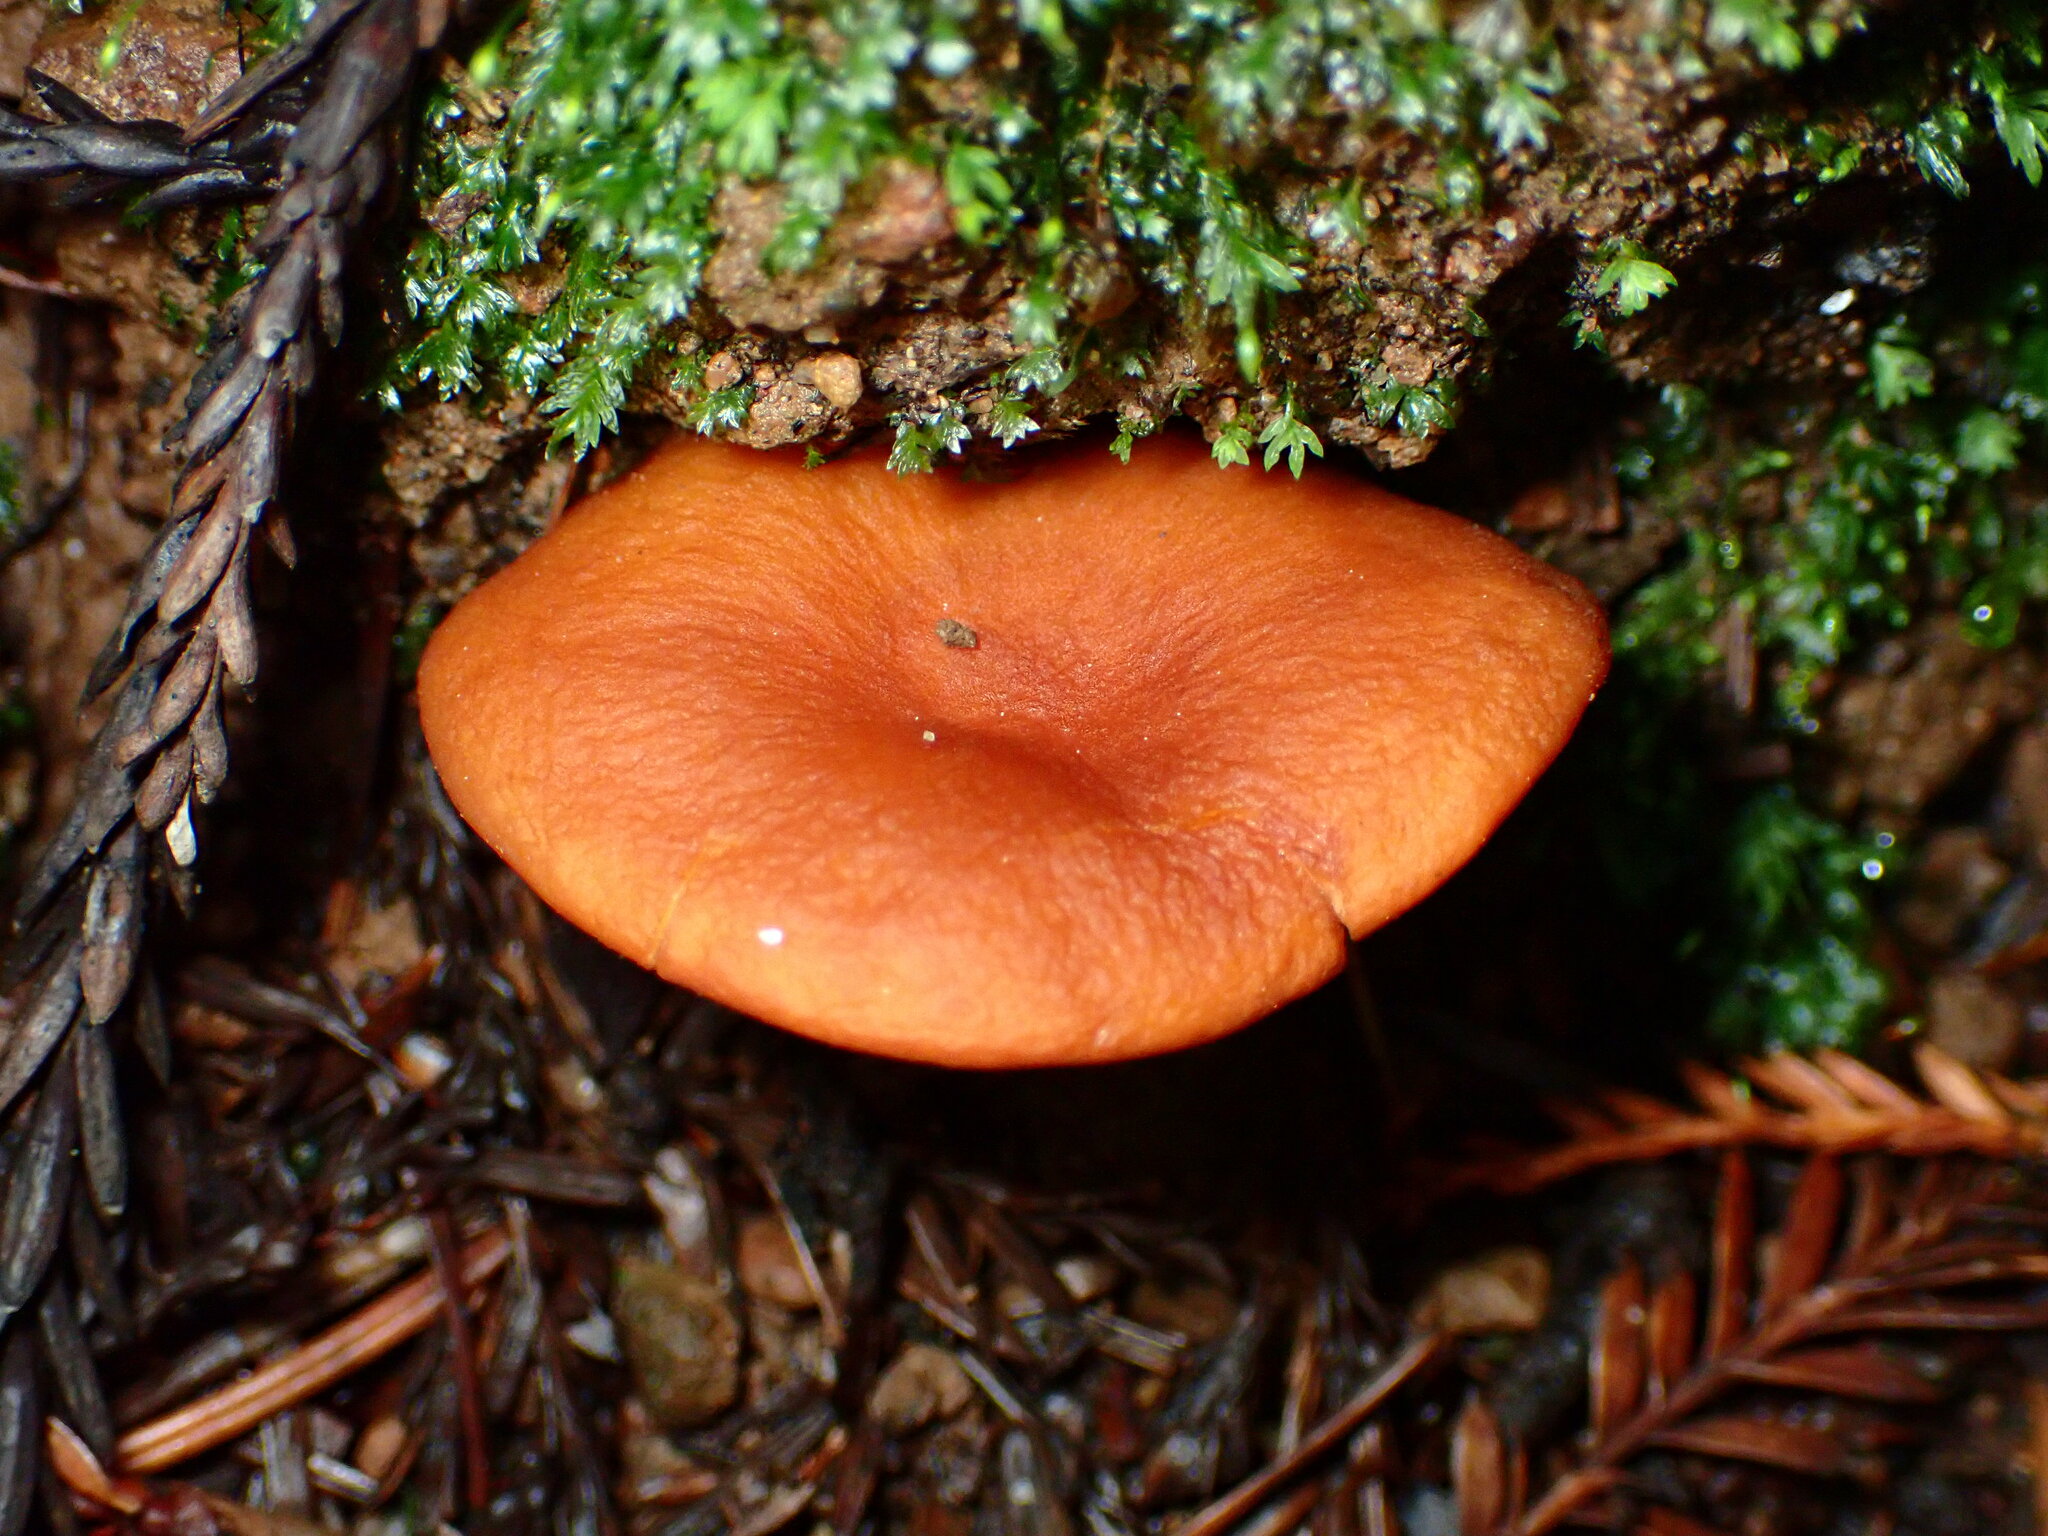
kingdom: Fungi
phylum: Basidiomycota
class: Agaricomycetes
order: Russulales
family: Russulaceae
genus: Lactarius
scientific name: Lactarius rubidus
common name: Candy cap
